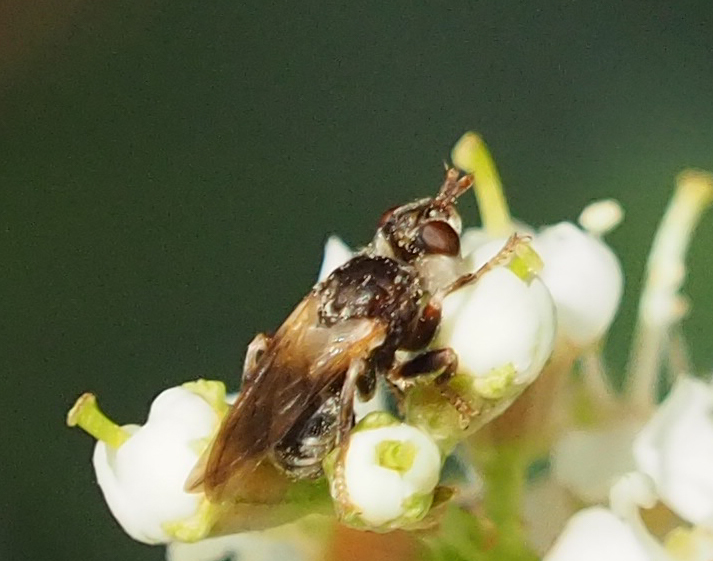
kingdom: Animalia
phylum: Arthropoda
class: Insecta
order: Diptera
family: Conopidae
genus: Myopa
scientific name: Myopa vesiculosa
